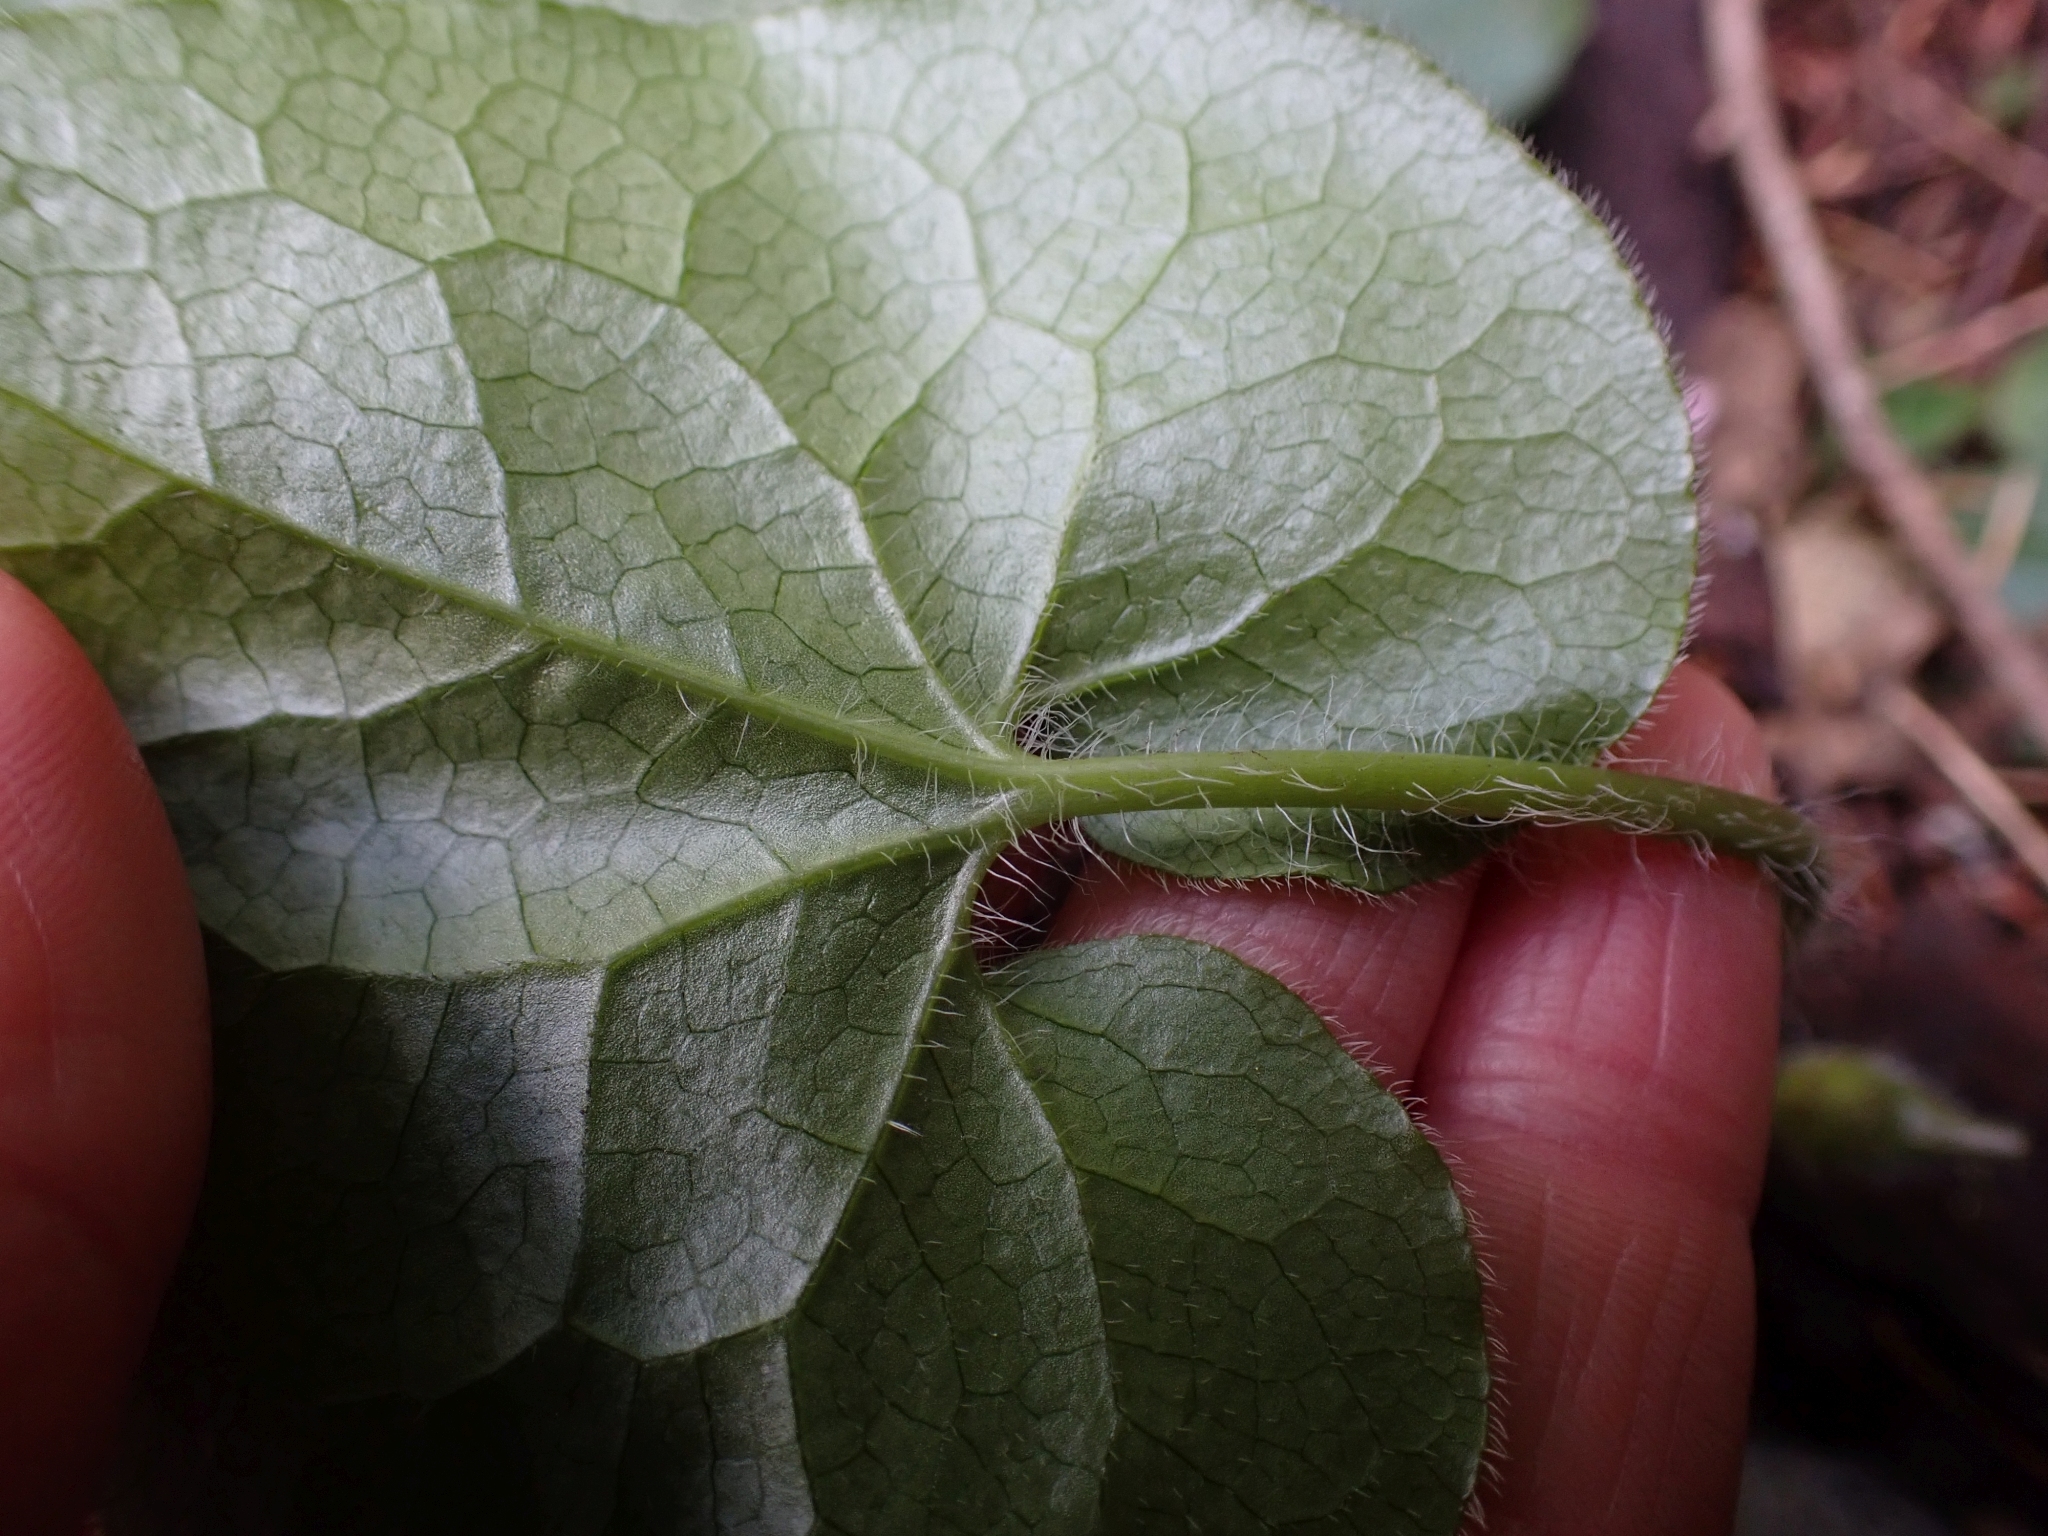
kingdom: Plantae
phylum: Tracheophyta
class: Magnoliopsida
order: Piperales
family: Aristolochiaceae
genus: Asarum
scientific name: Asarum caudatum
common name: Wild ginger
